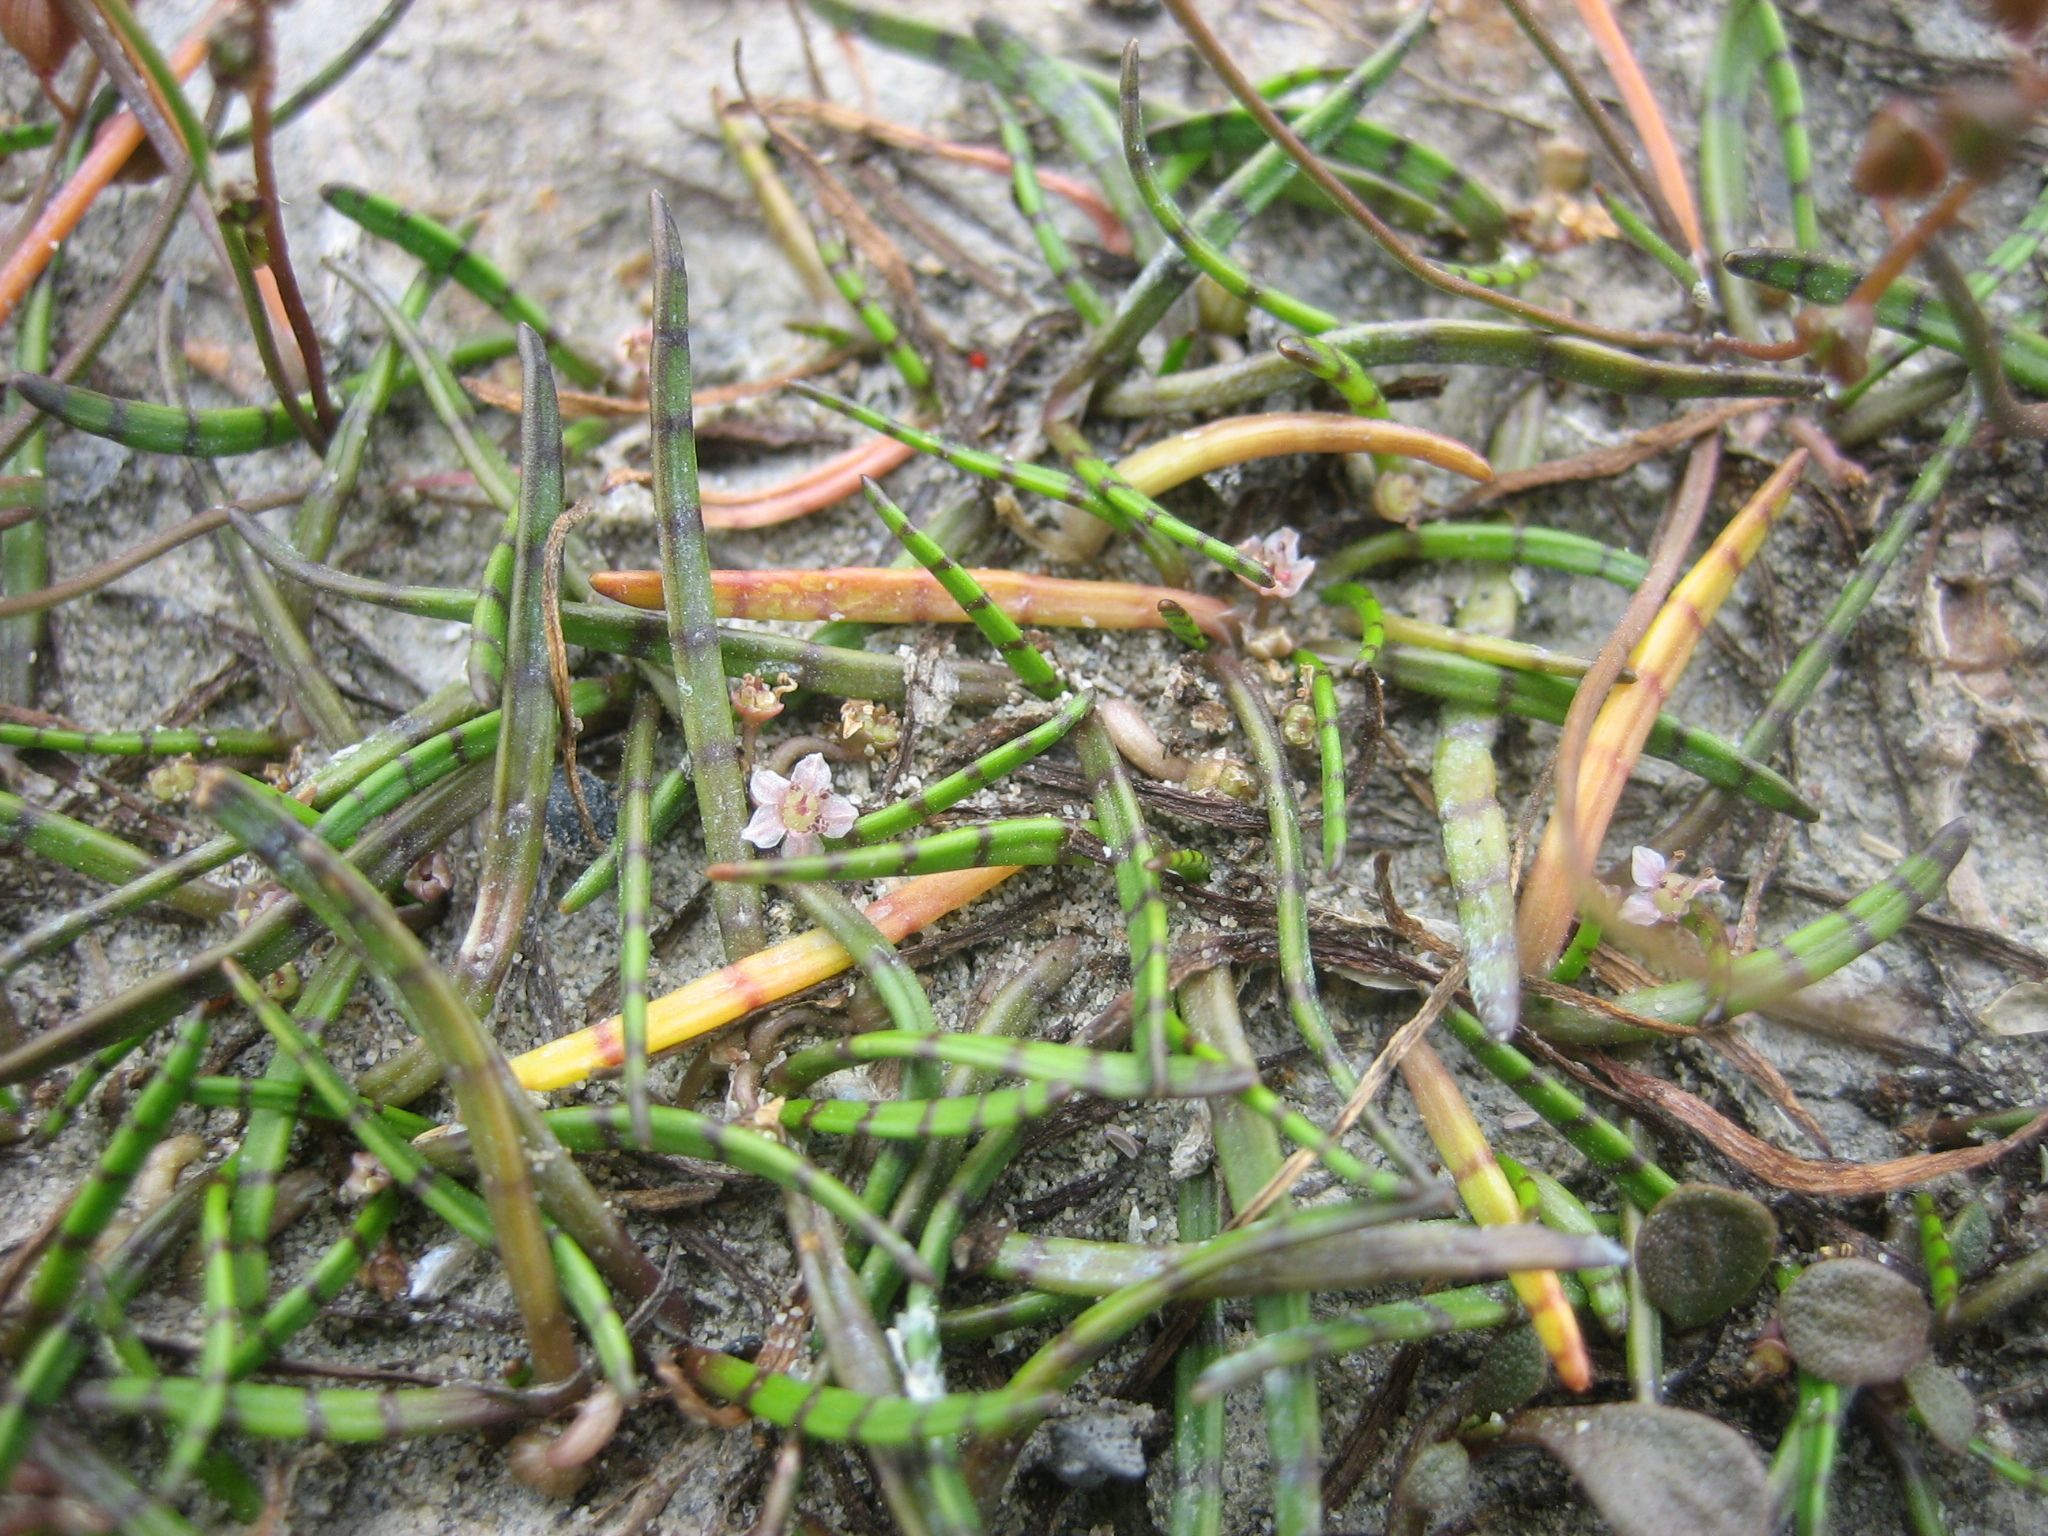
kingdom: Plantae
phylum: Tracheophyta
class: Magnoliopsida
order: Apiales
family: Apiaceae
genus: Lilaeopsis
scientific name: Lilaeopsis novae-zelandiae
